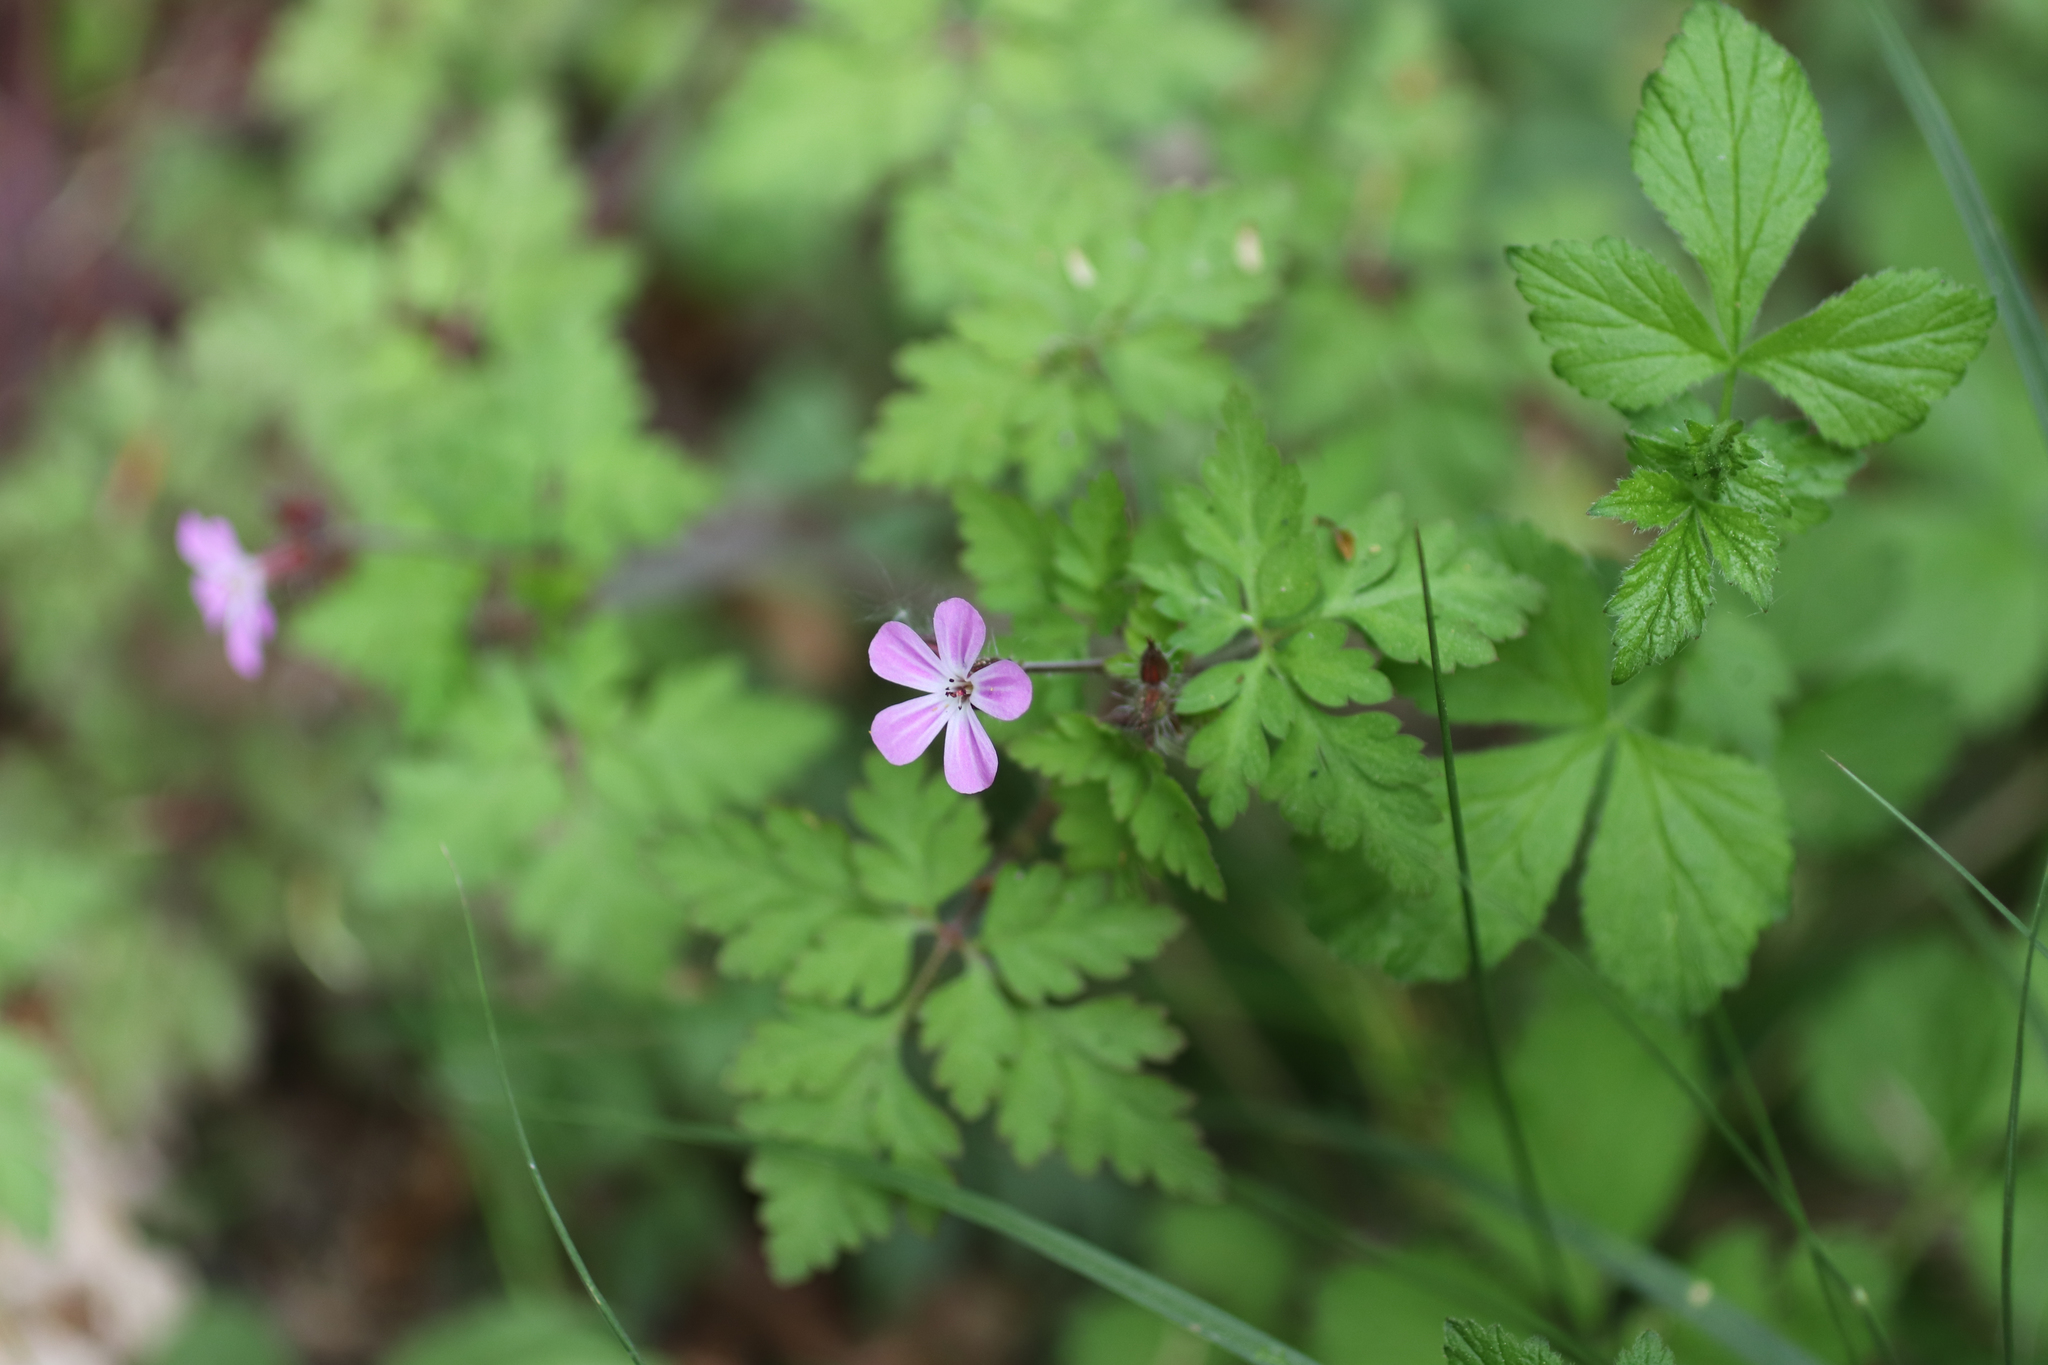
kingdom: Plantae
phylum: Tracheophyta
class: Magnoliopsida
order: Geraniales
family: Geraniaceae
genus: Geranium
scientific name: Geranium robertianum
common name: Herb-robert
